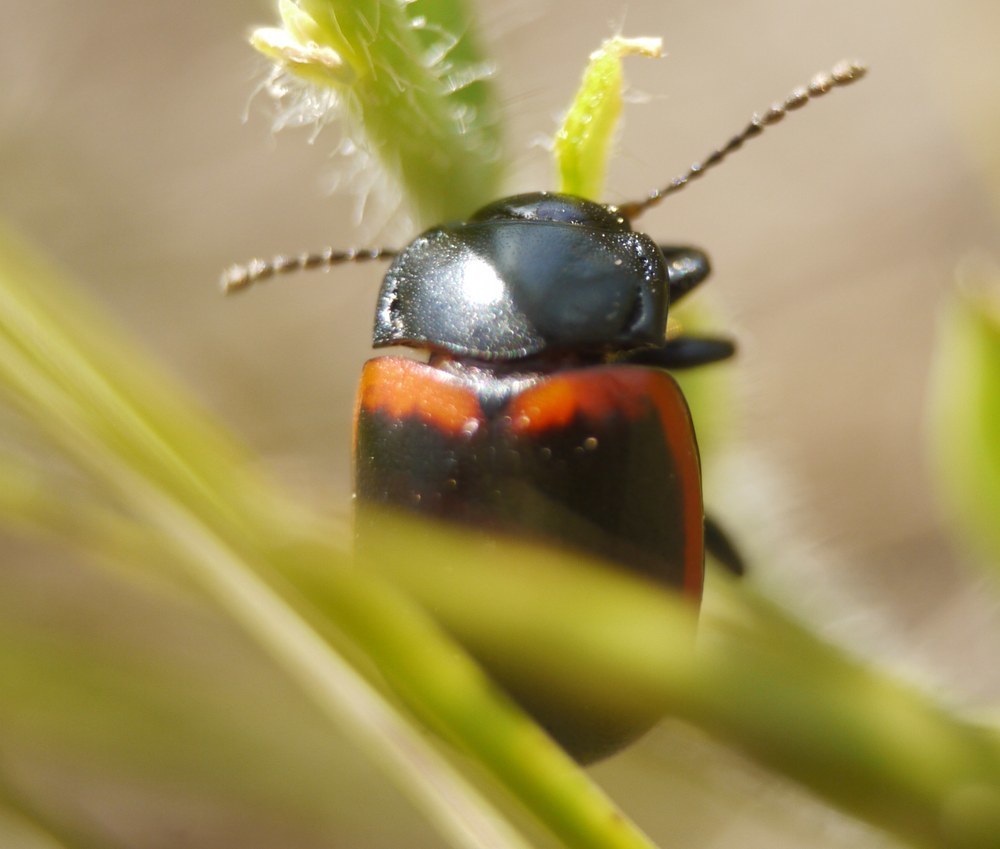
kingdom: Animalia
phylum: Arthropoda
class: Insecta
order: Coleoptera
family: Chrysomelidae
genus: Chrysolina
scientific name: Chrysolina limbata
